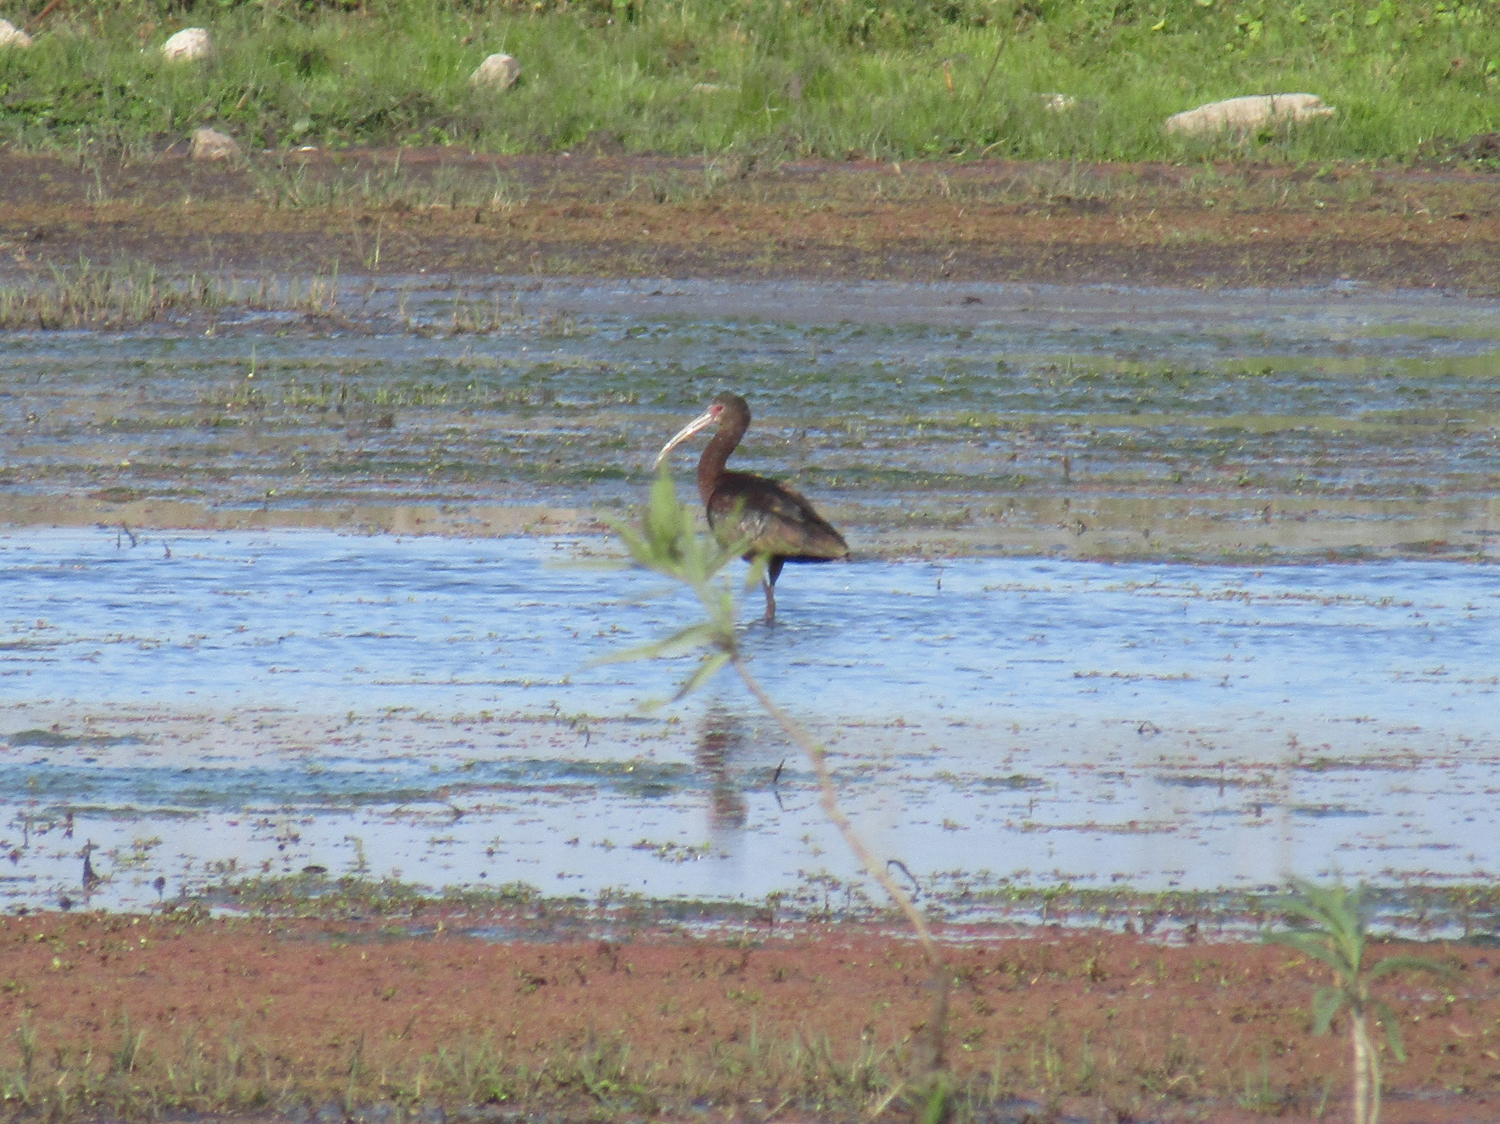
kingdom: Animalia
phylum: Chordata
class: Aves
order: Pelecaniformes
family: Threskiornithidae
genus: Plegadis
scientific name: Plegadis chihi
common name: White-faced ibis
